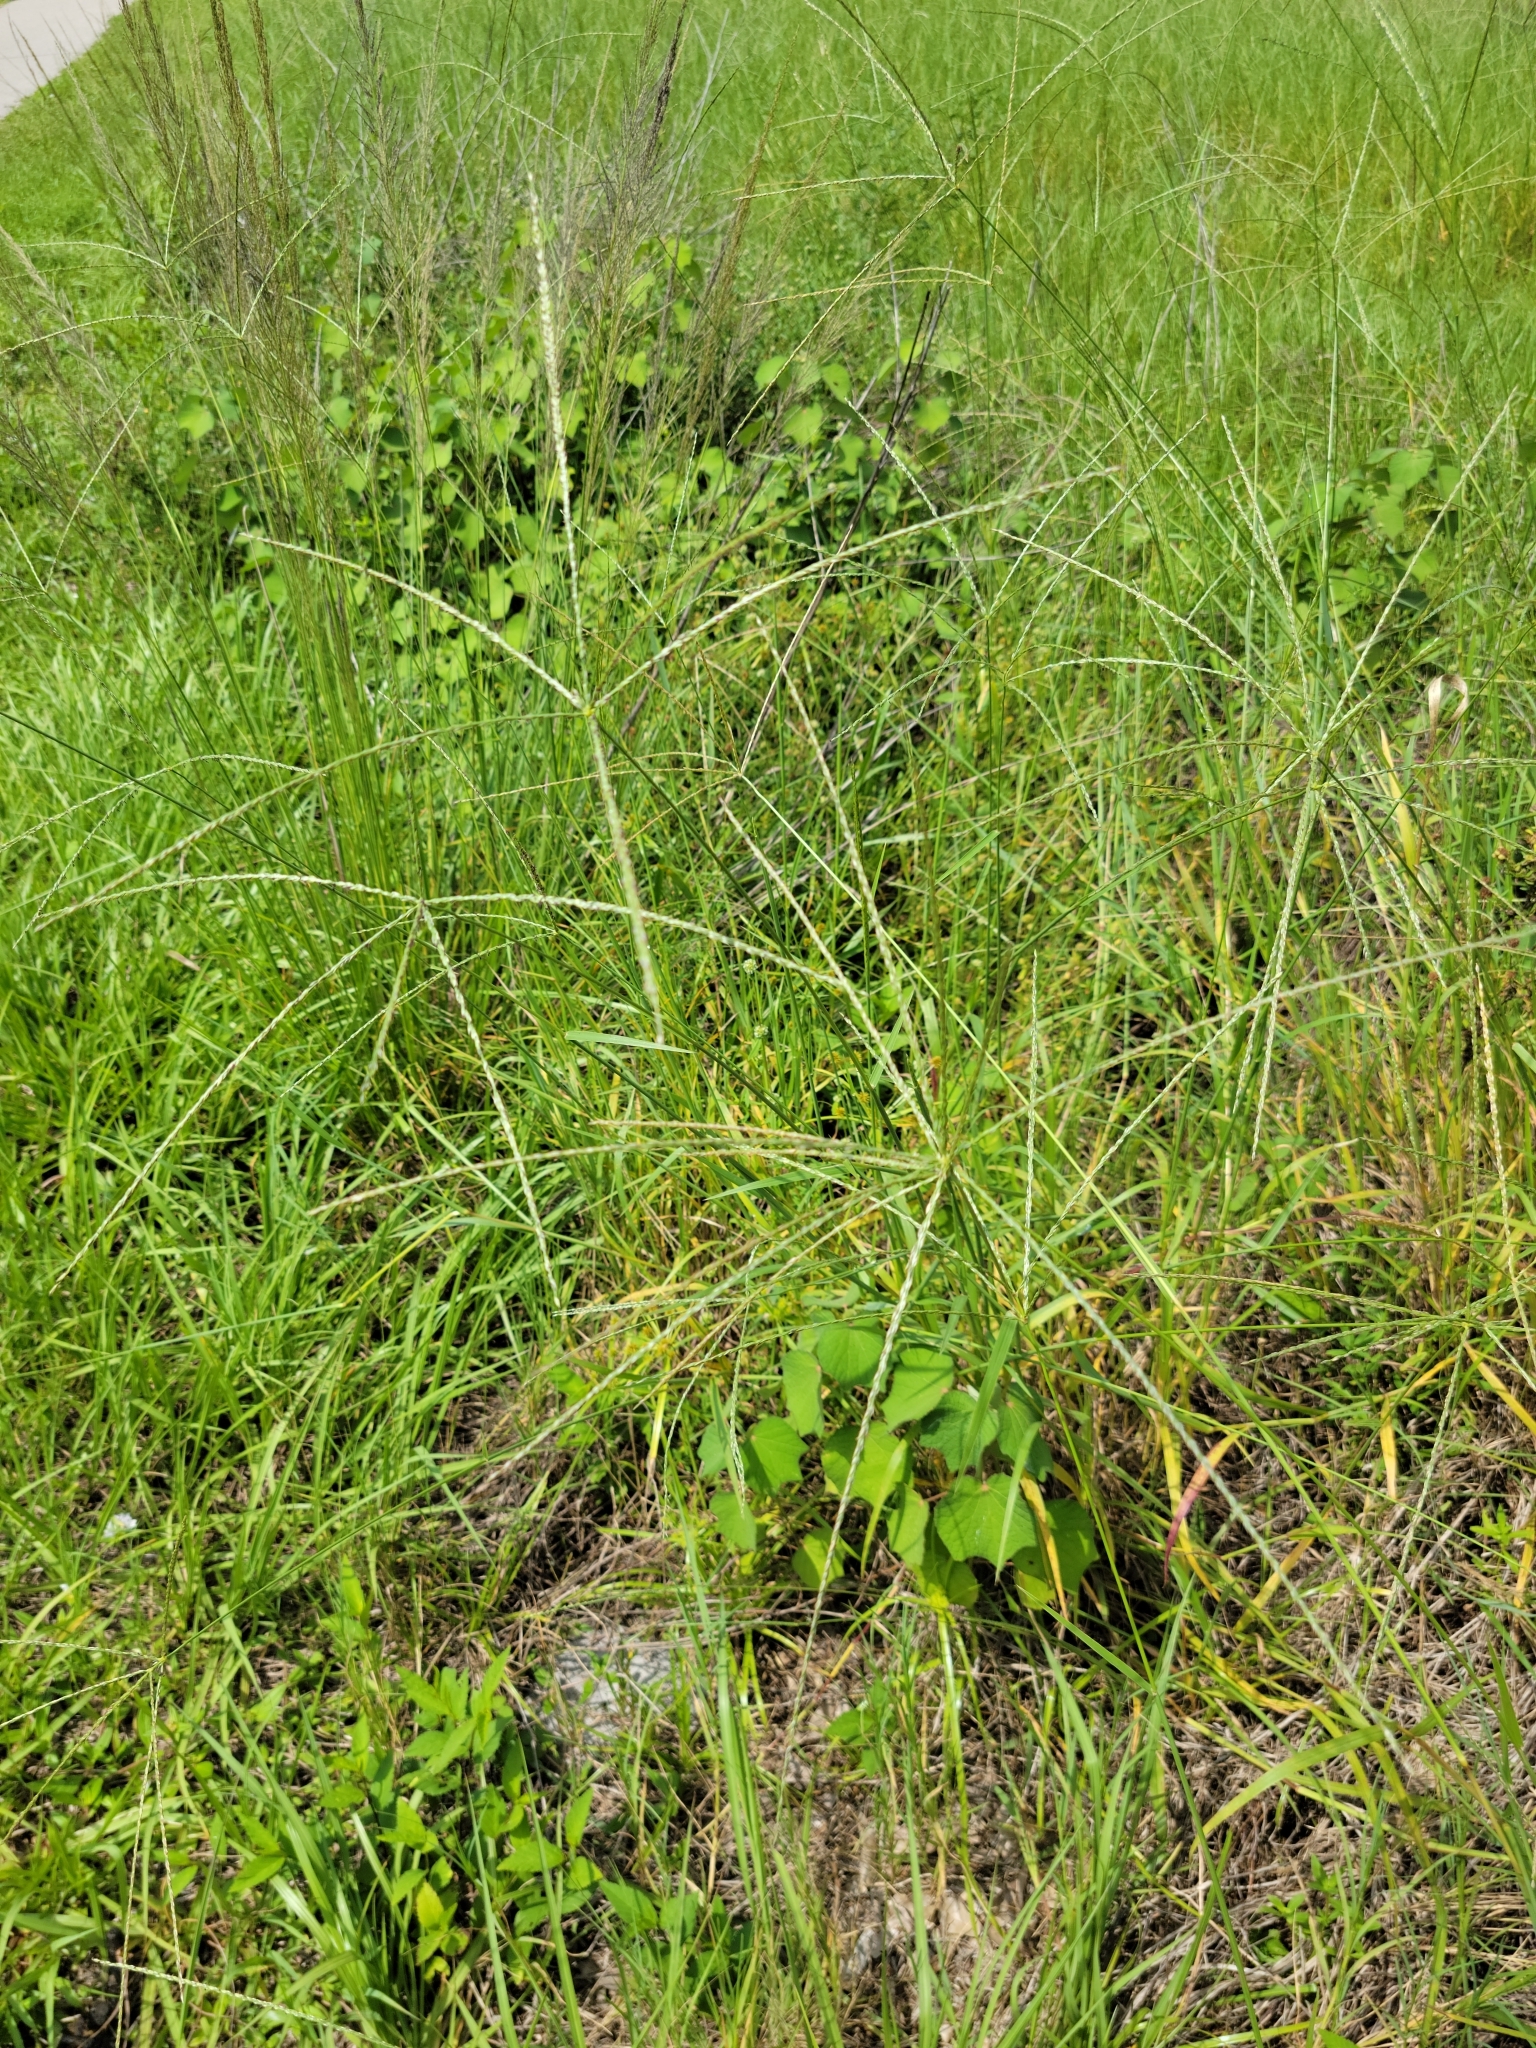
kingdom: Plantae
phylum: Tracheophyta
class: Liliopsida
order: Poales
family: Poaceae
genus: Digitaria
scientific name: Digitaria eriantha
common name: Digitgrass
